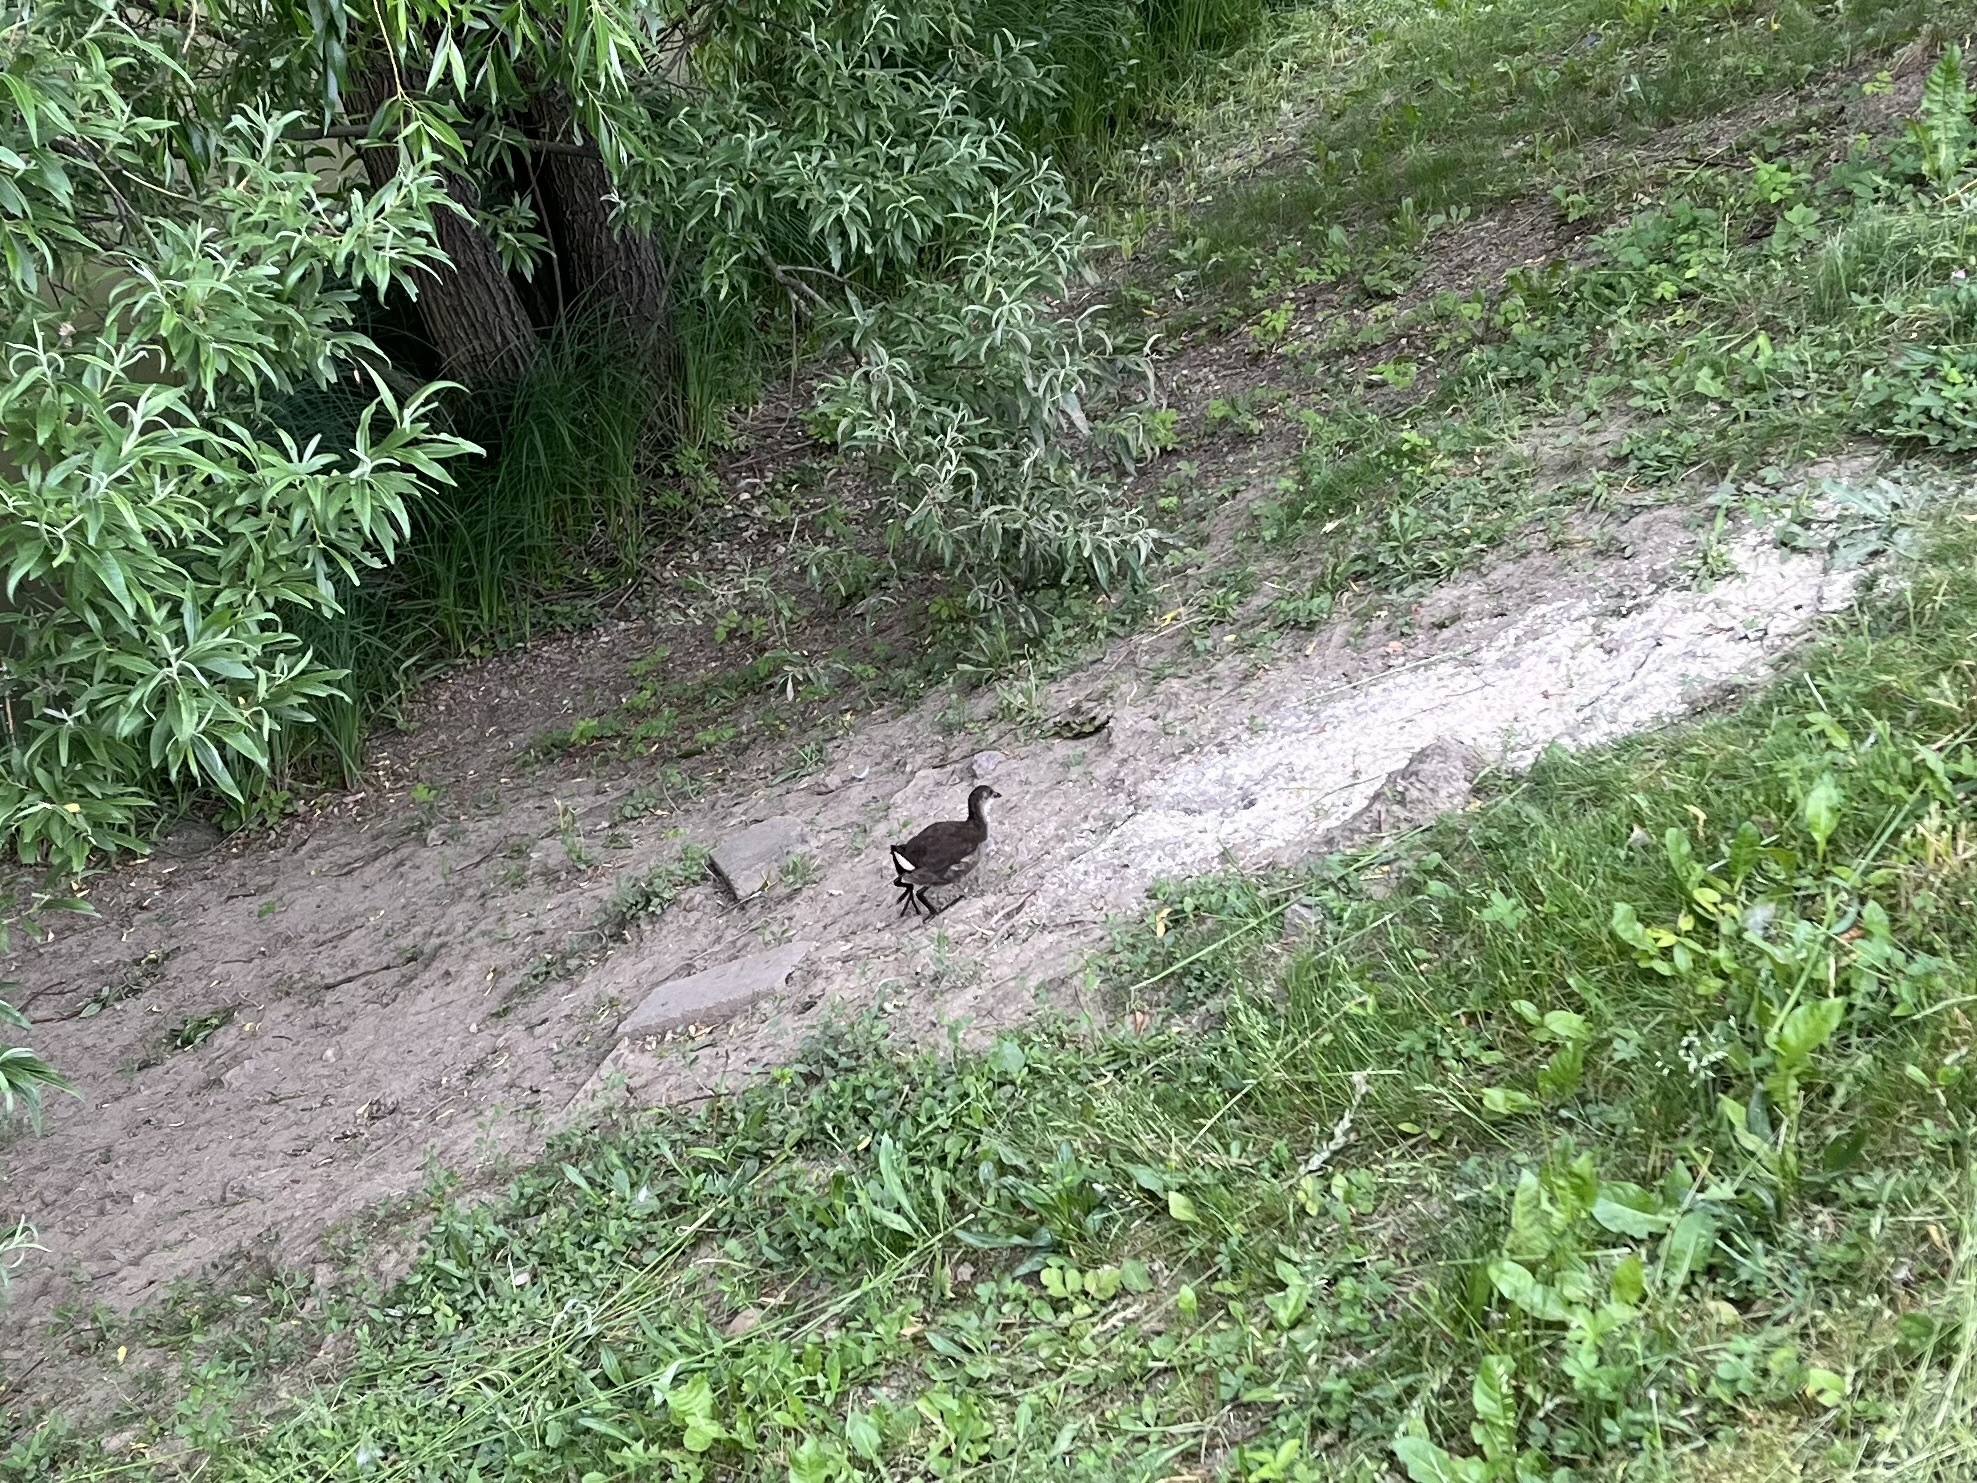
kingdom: Animalia
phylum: Chordata
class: Aves
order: Gruiformes
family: Rallidae
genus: Gallinula
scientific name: Gallinula chloropus
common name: Common moorhen
